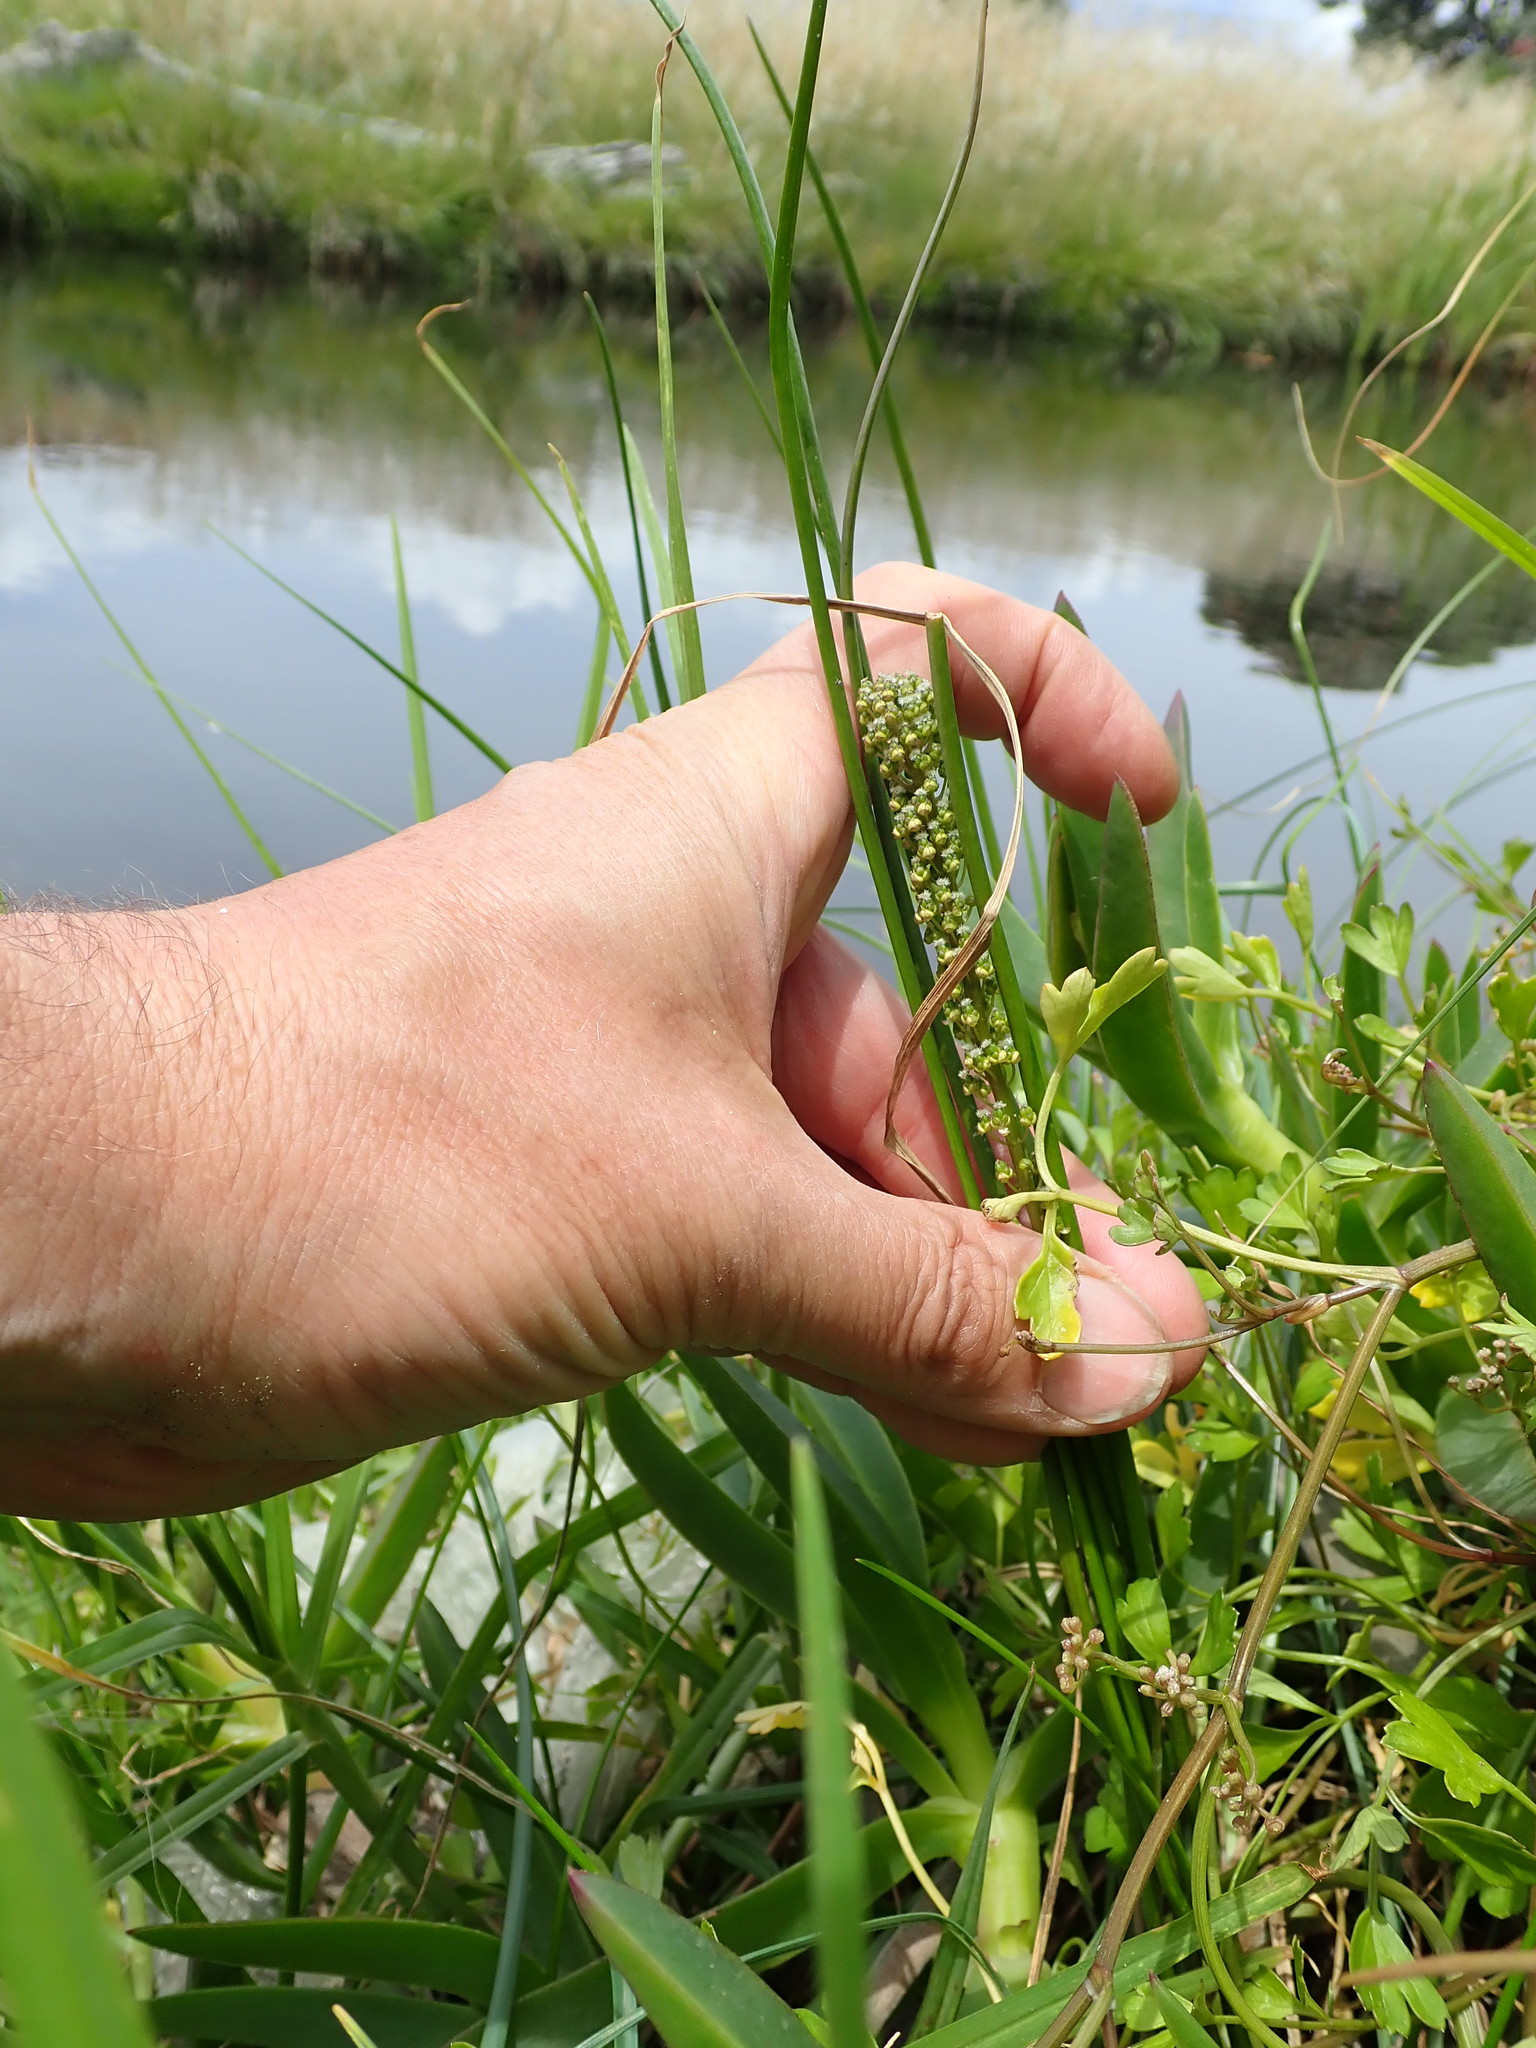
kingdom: Plantae
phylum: Tracheophyta
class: Liliopsida
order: Alismatales
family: Juncaginaceae
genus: Triglochin
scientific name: Triglochin striata
